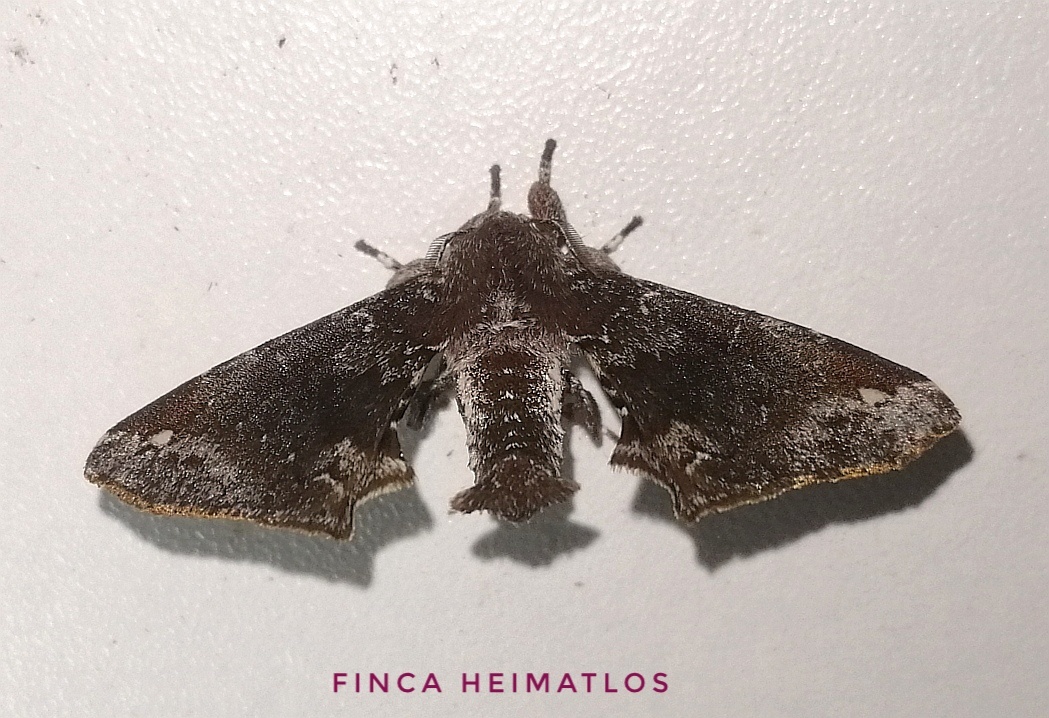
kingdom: Animalia
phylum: Arthropoda
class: Insecta
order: Lepidoptera
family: Apatelodidae
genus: Hygrochroa
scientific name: Hygrochroa Apatelodes albipunctata
